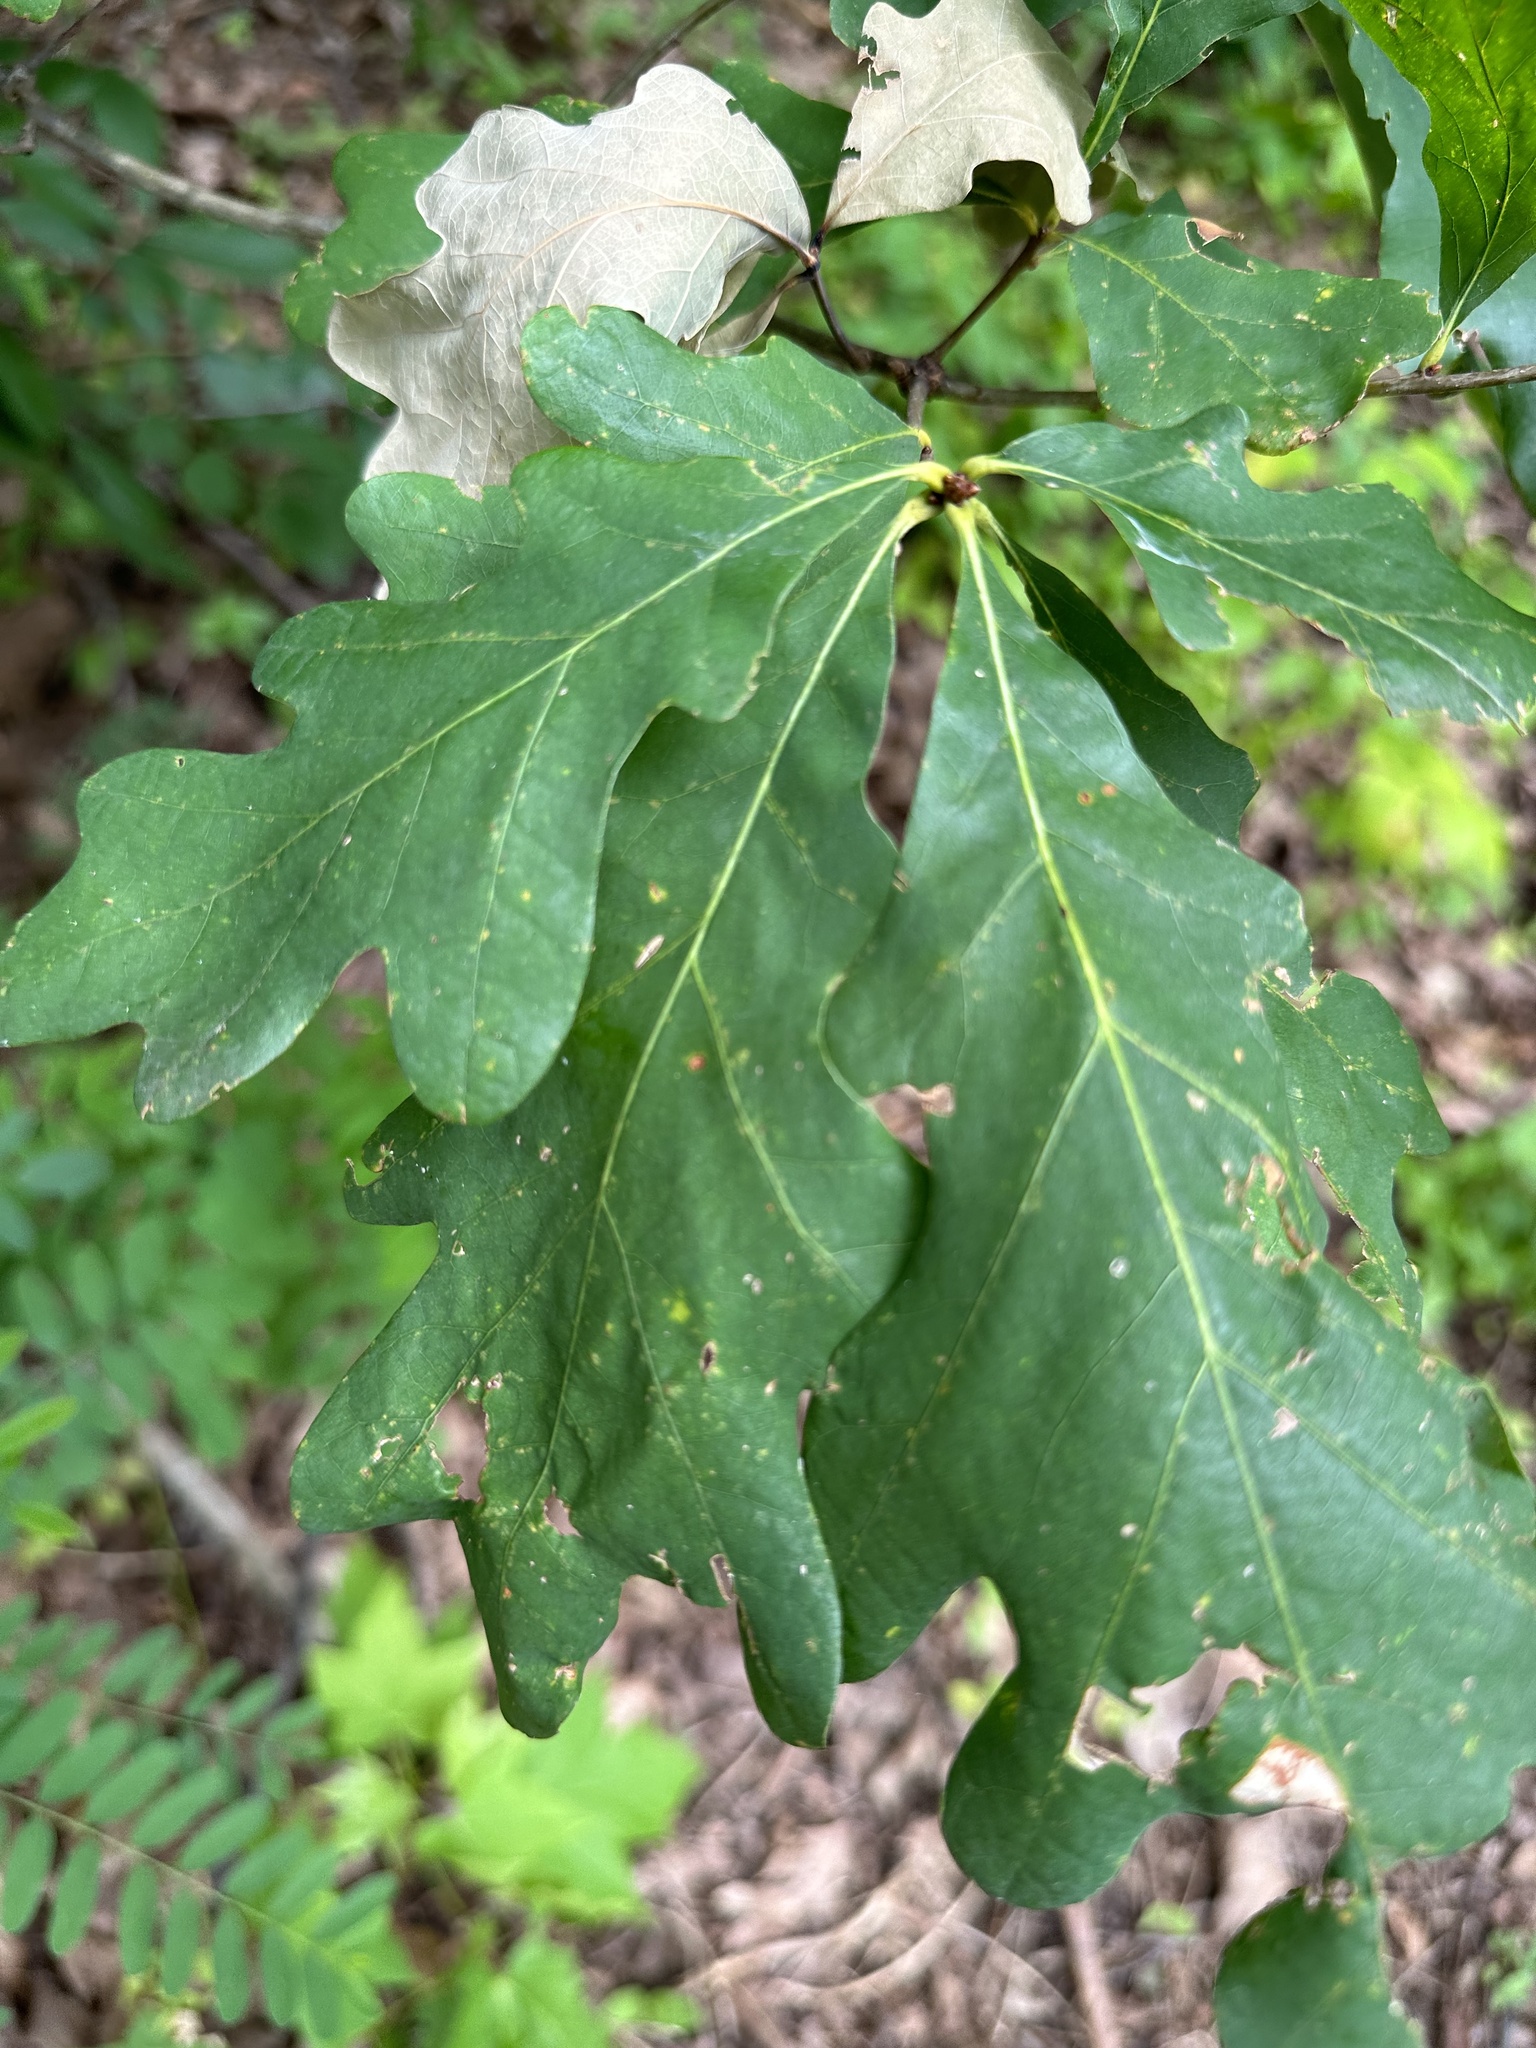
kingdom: Plantae
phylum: Tracheophyta
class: Magnoliopsida
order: Fagales
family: Fagaceae
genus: Quercus
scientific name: Quercus alba
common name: White oak
